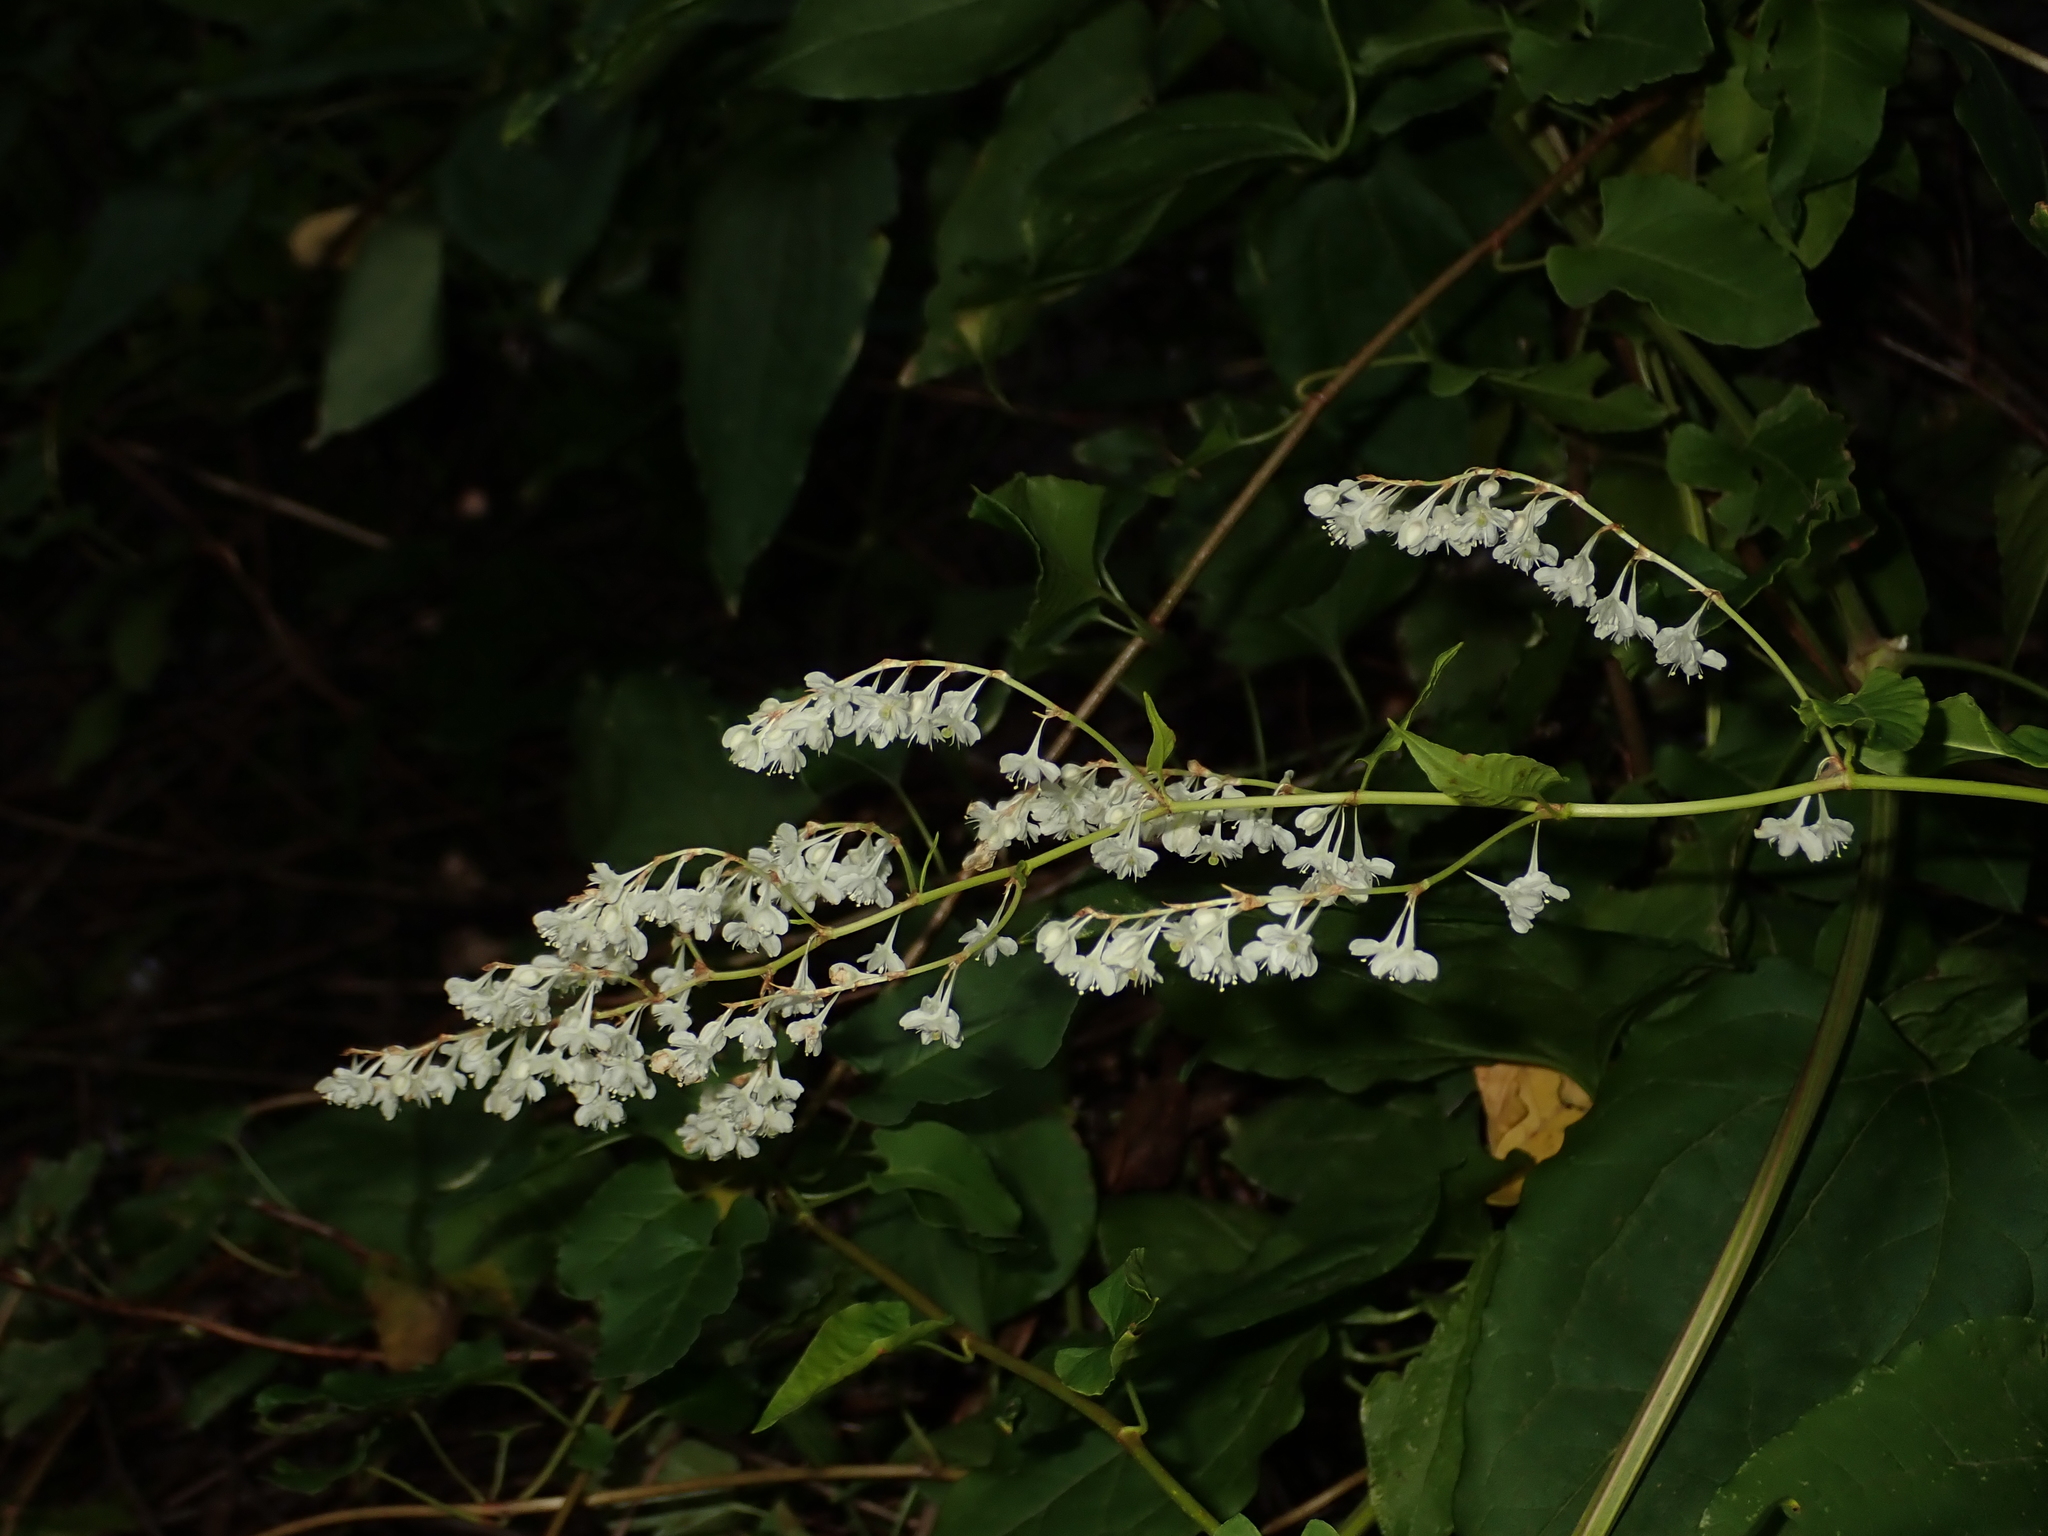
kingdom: Plantae
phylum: Tracheophyta
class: Magnoliopsida
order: Caryophyllales
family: Polygonaceae
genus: Fallopia
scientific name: Fallopia baldschuanica
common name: Russian-vine
